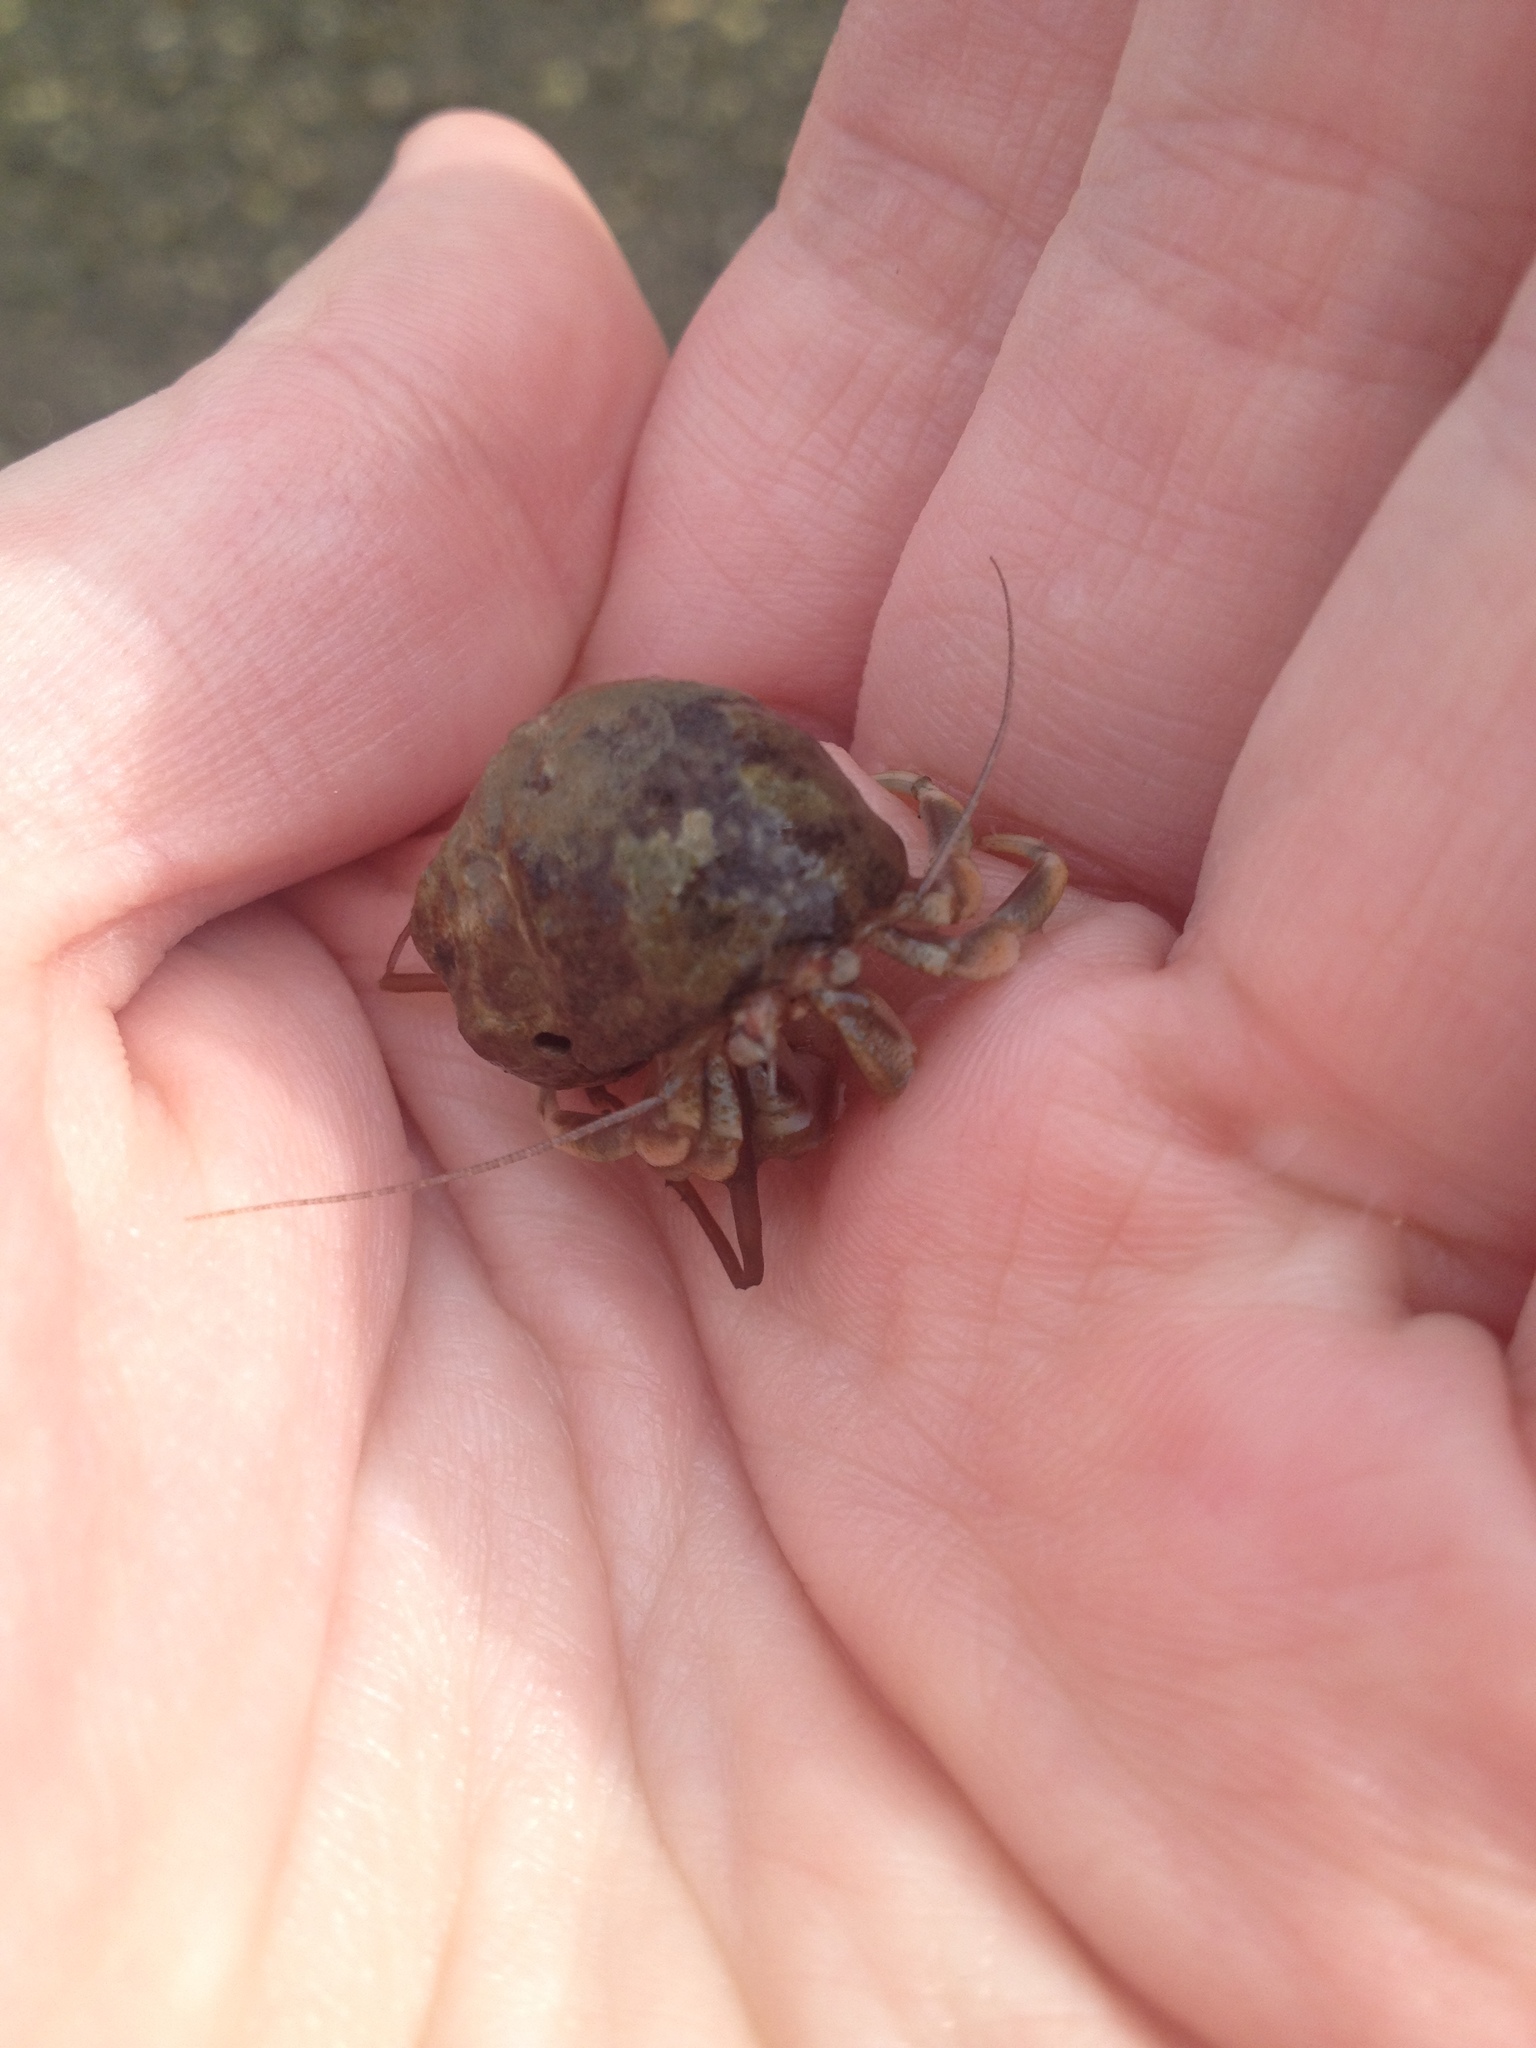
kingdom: Animalia
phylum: Arthropoda
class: Malacostraca
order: Decapoda
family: Paguridae
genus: Pagurus
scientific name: Pagurus longicarpus
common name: Long-armed hermit crab
